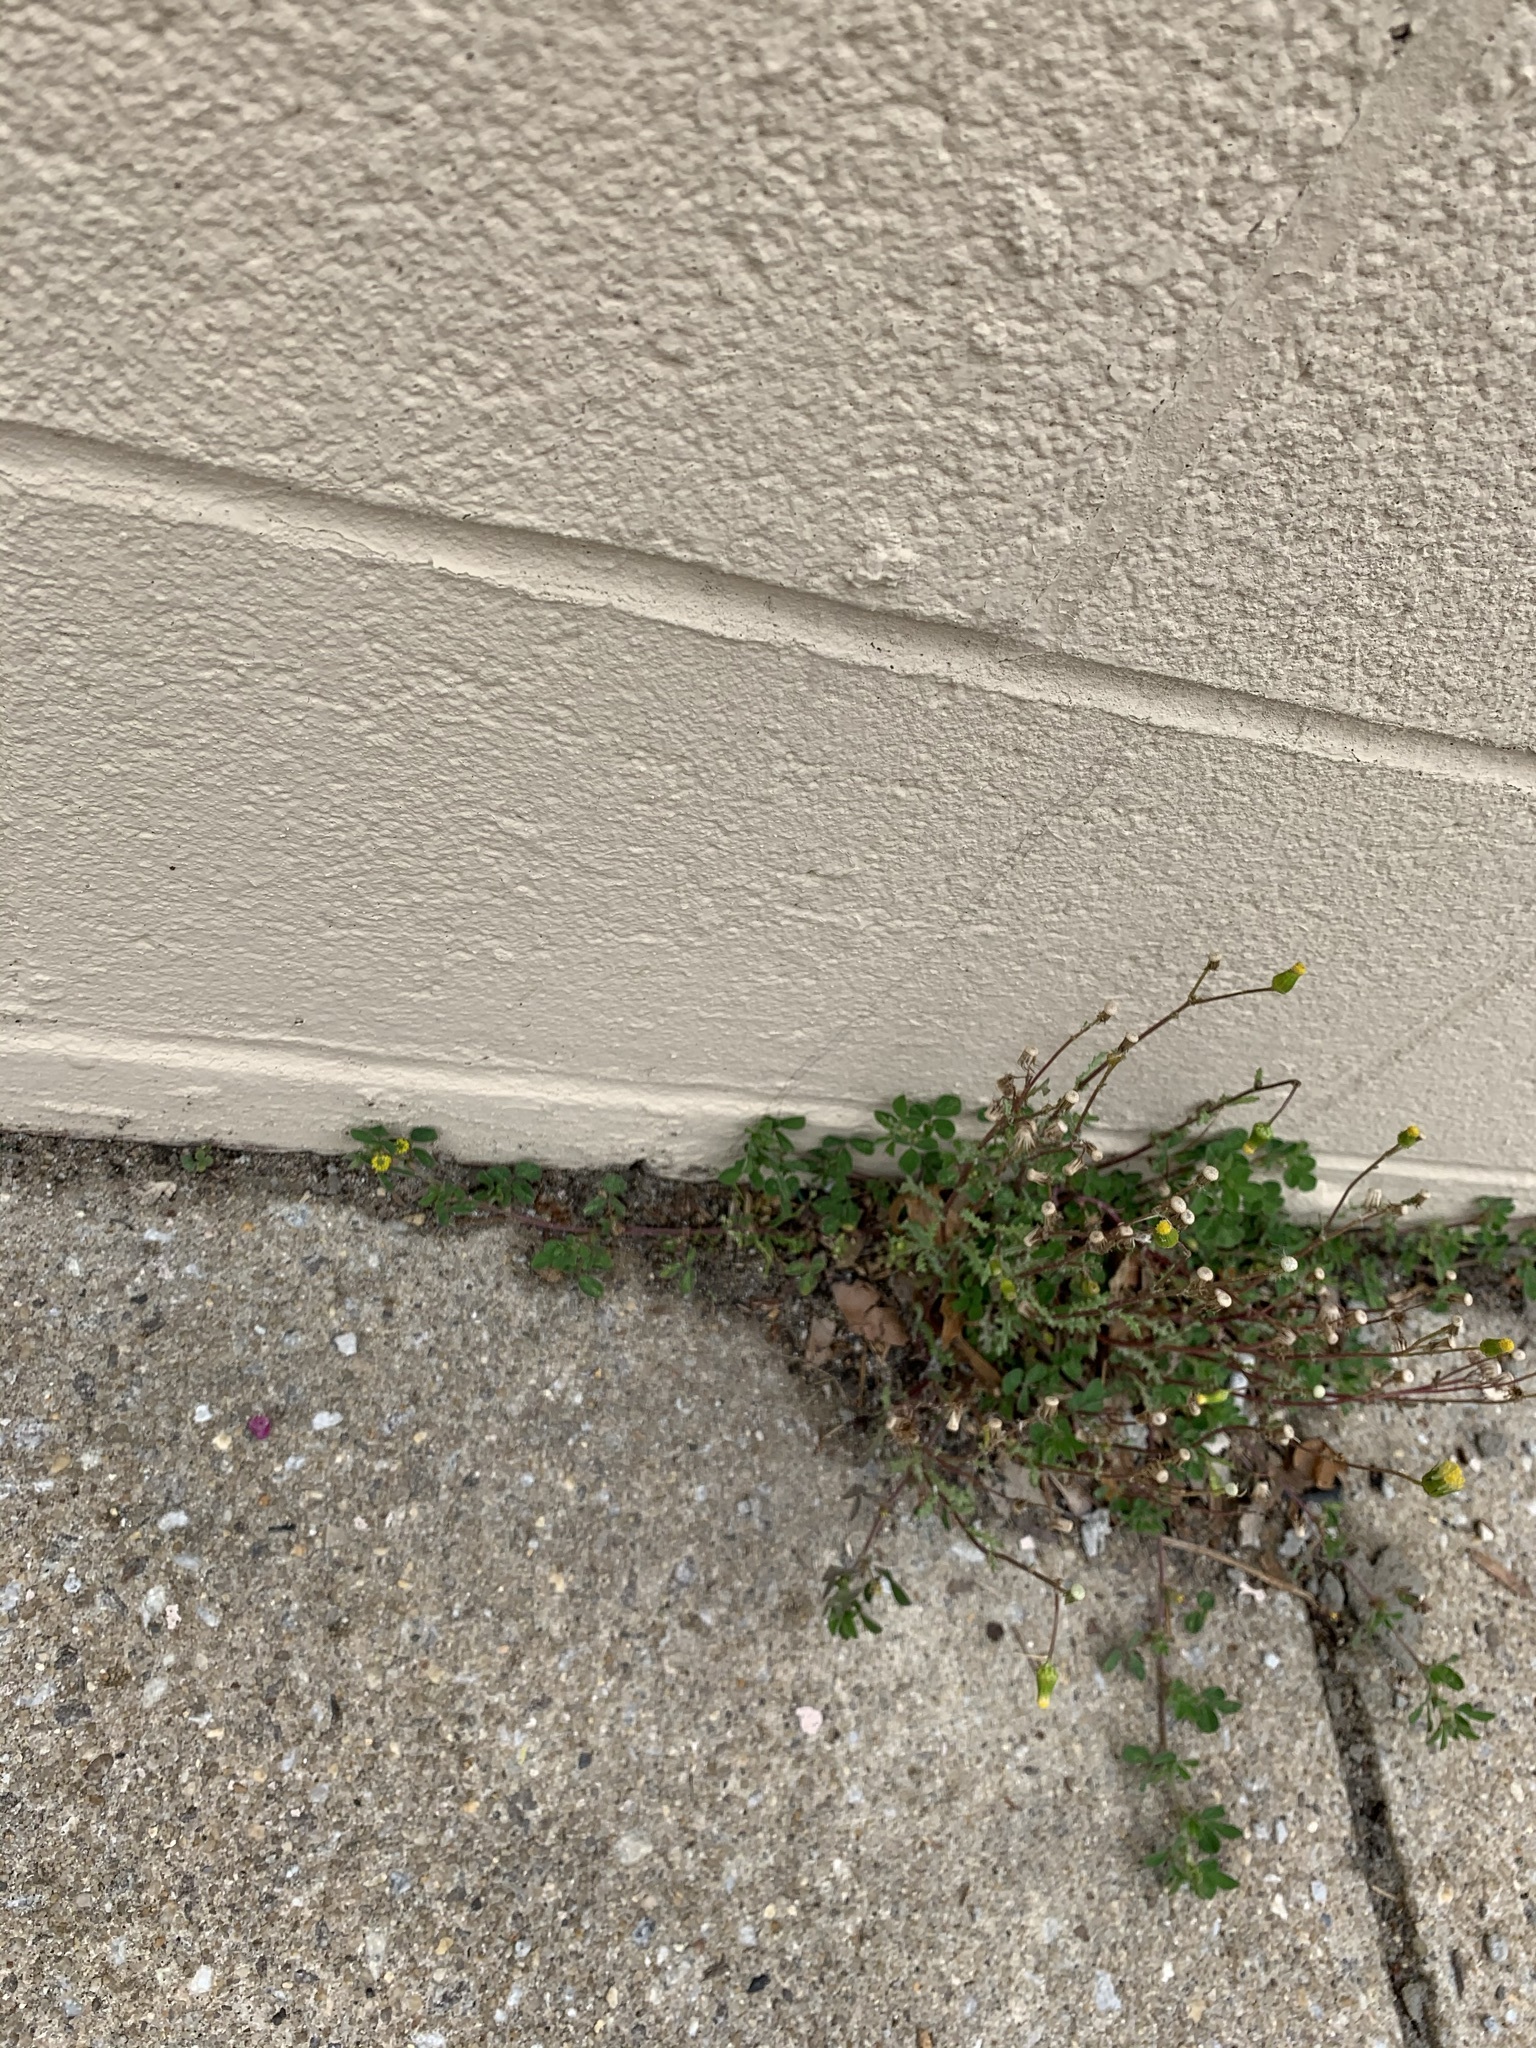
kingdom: Plantae
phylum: Tracheophyta
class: Magnoliopsida
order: Fabales
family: Fabaceae
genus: Medicago
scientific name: Medicago lupulina
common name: Black medick
